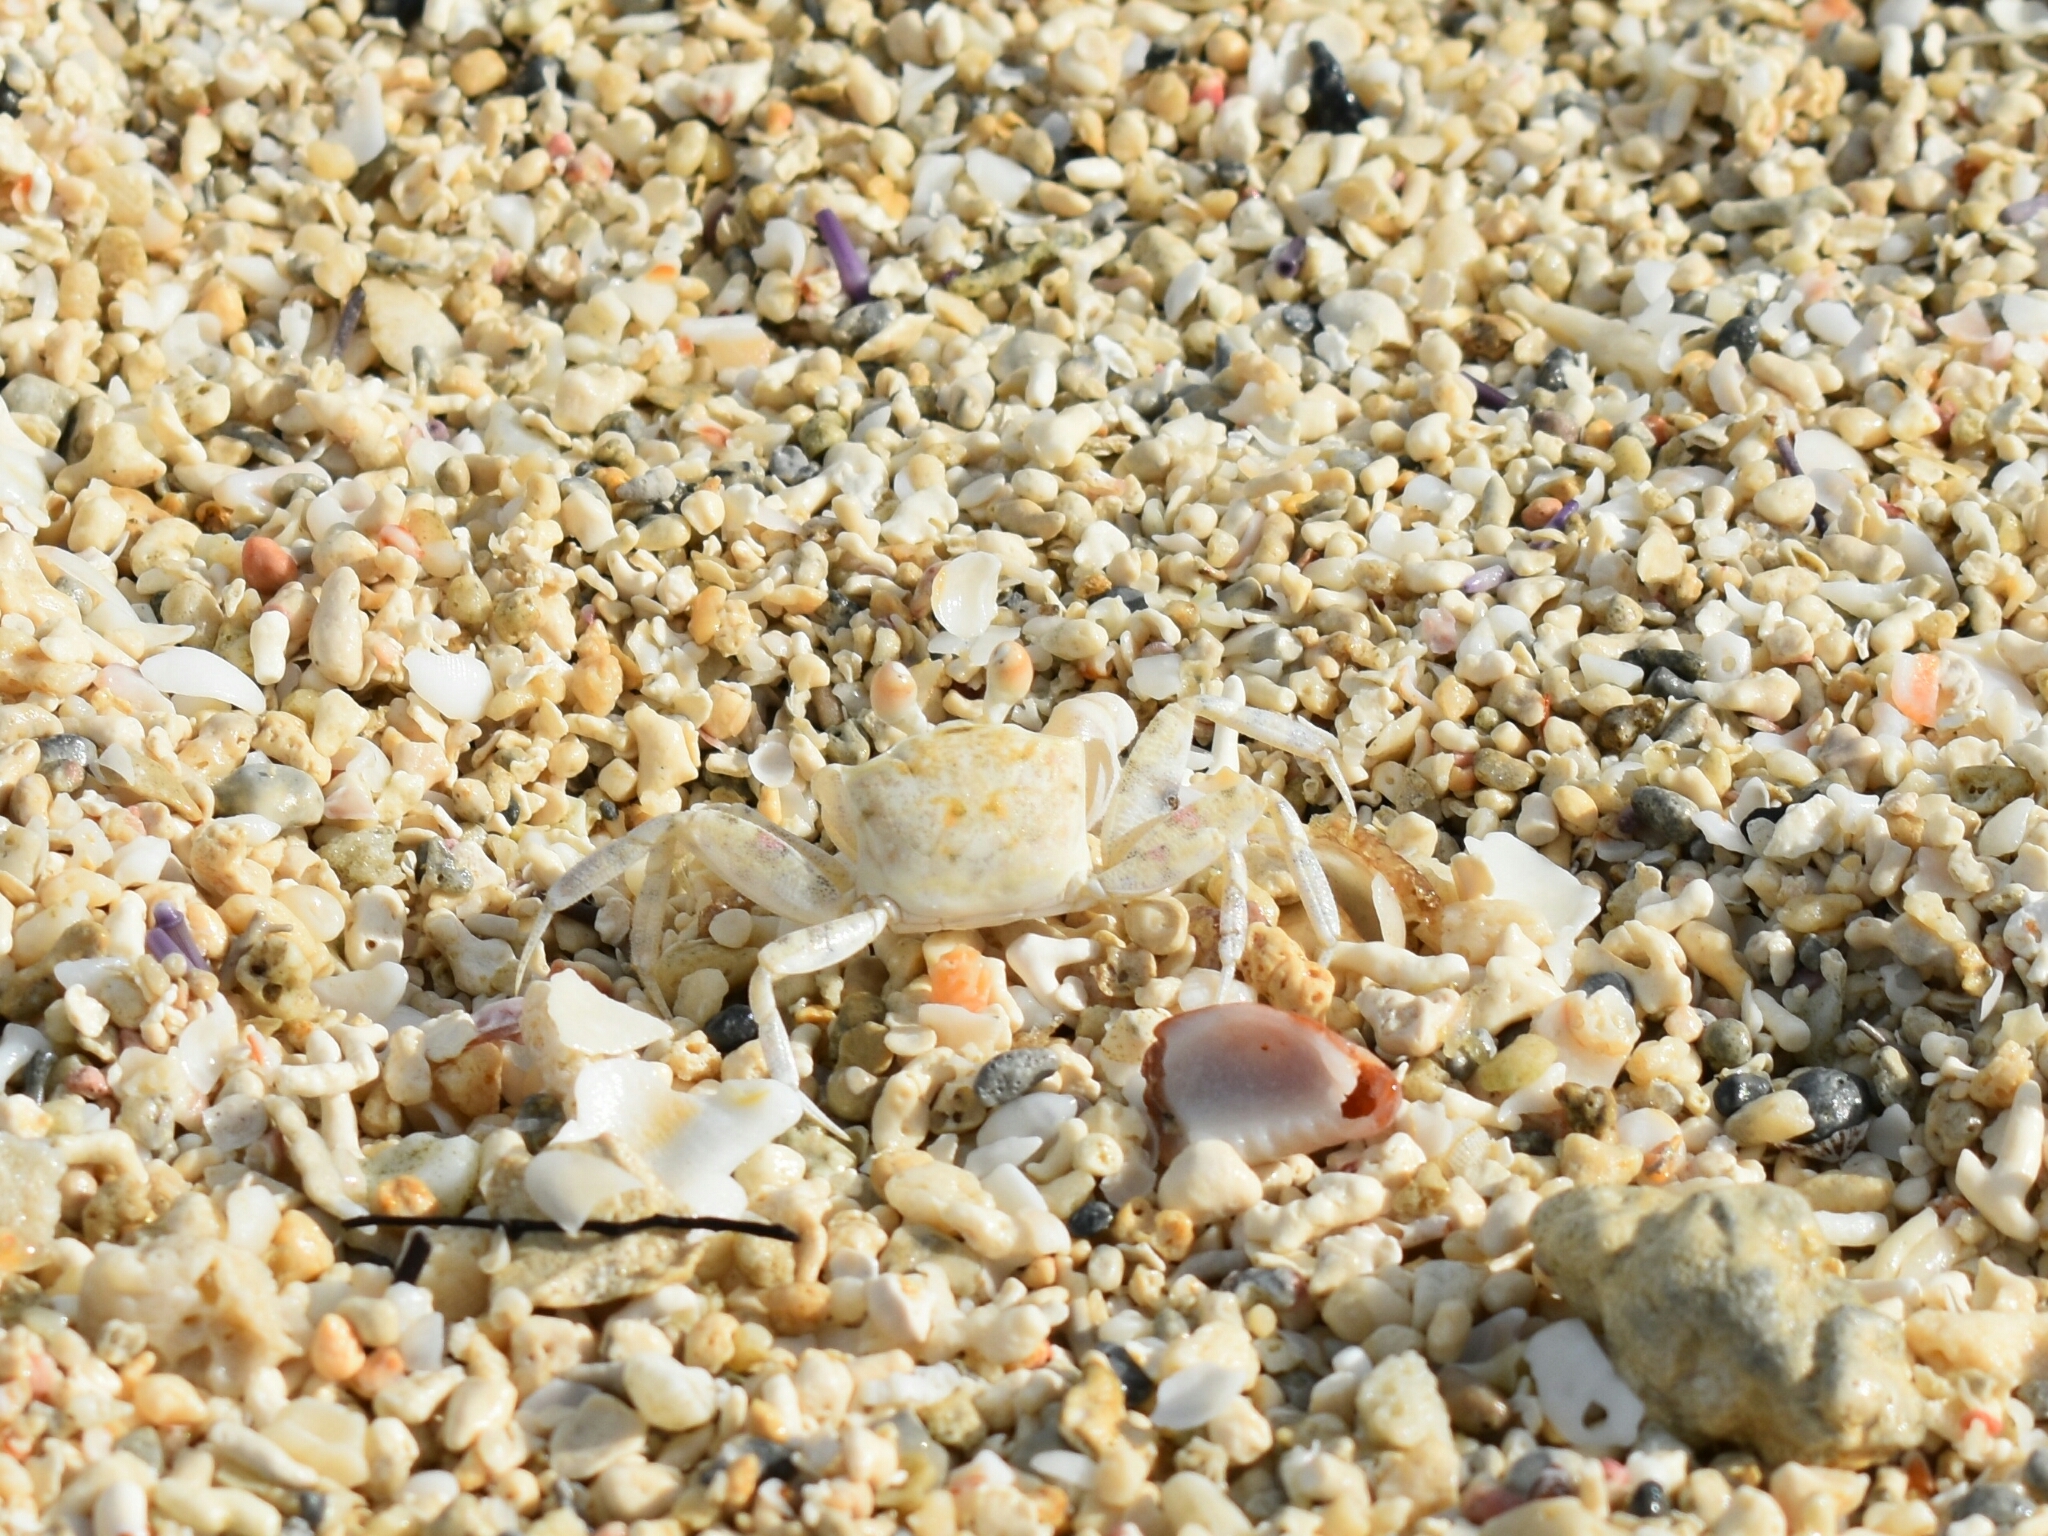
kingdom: Animalia
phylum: Arthropoda
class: Malacostraca
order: Decapoda
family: Ocypodidae
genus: Ocypode
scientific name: Ocypode pallidula
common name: Pallid ghost crab
